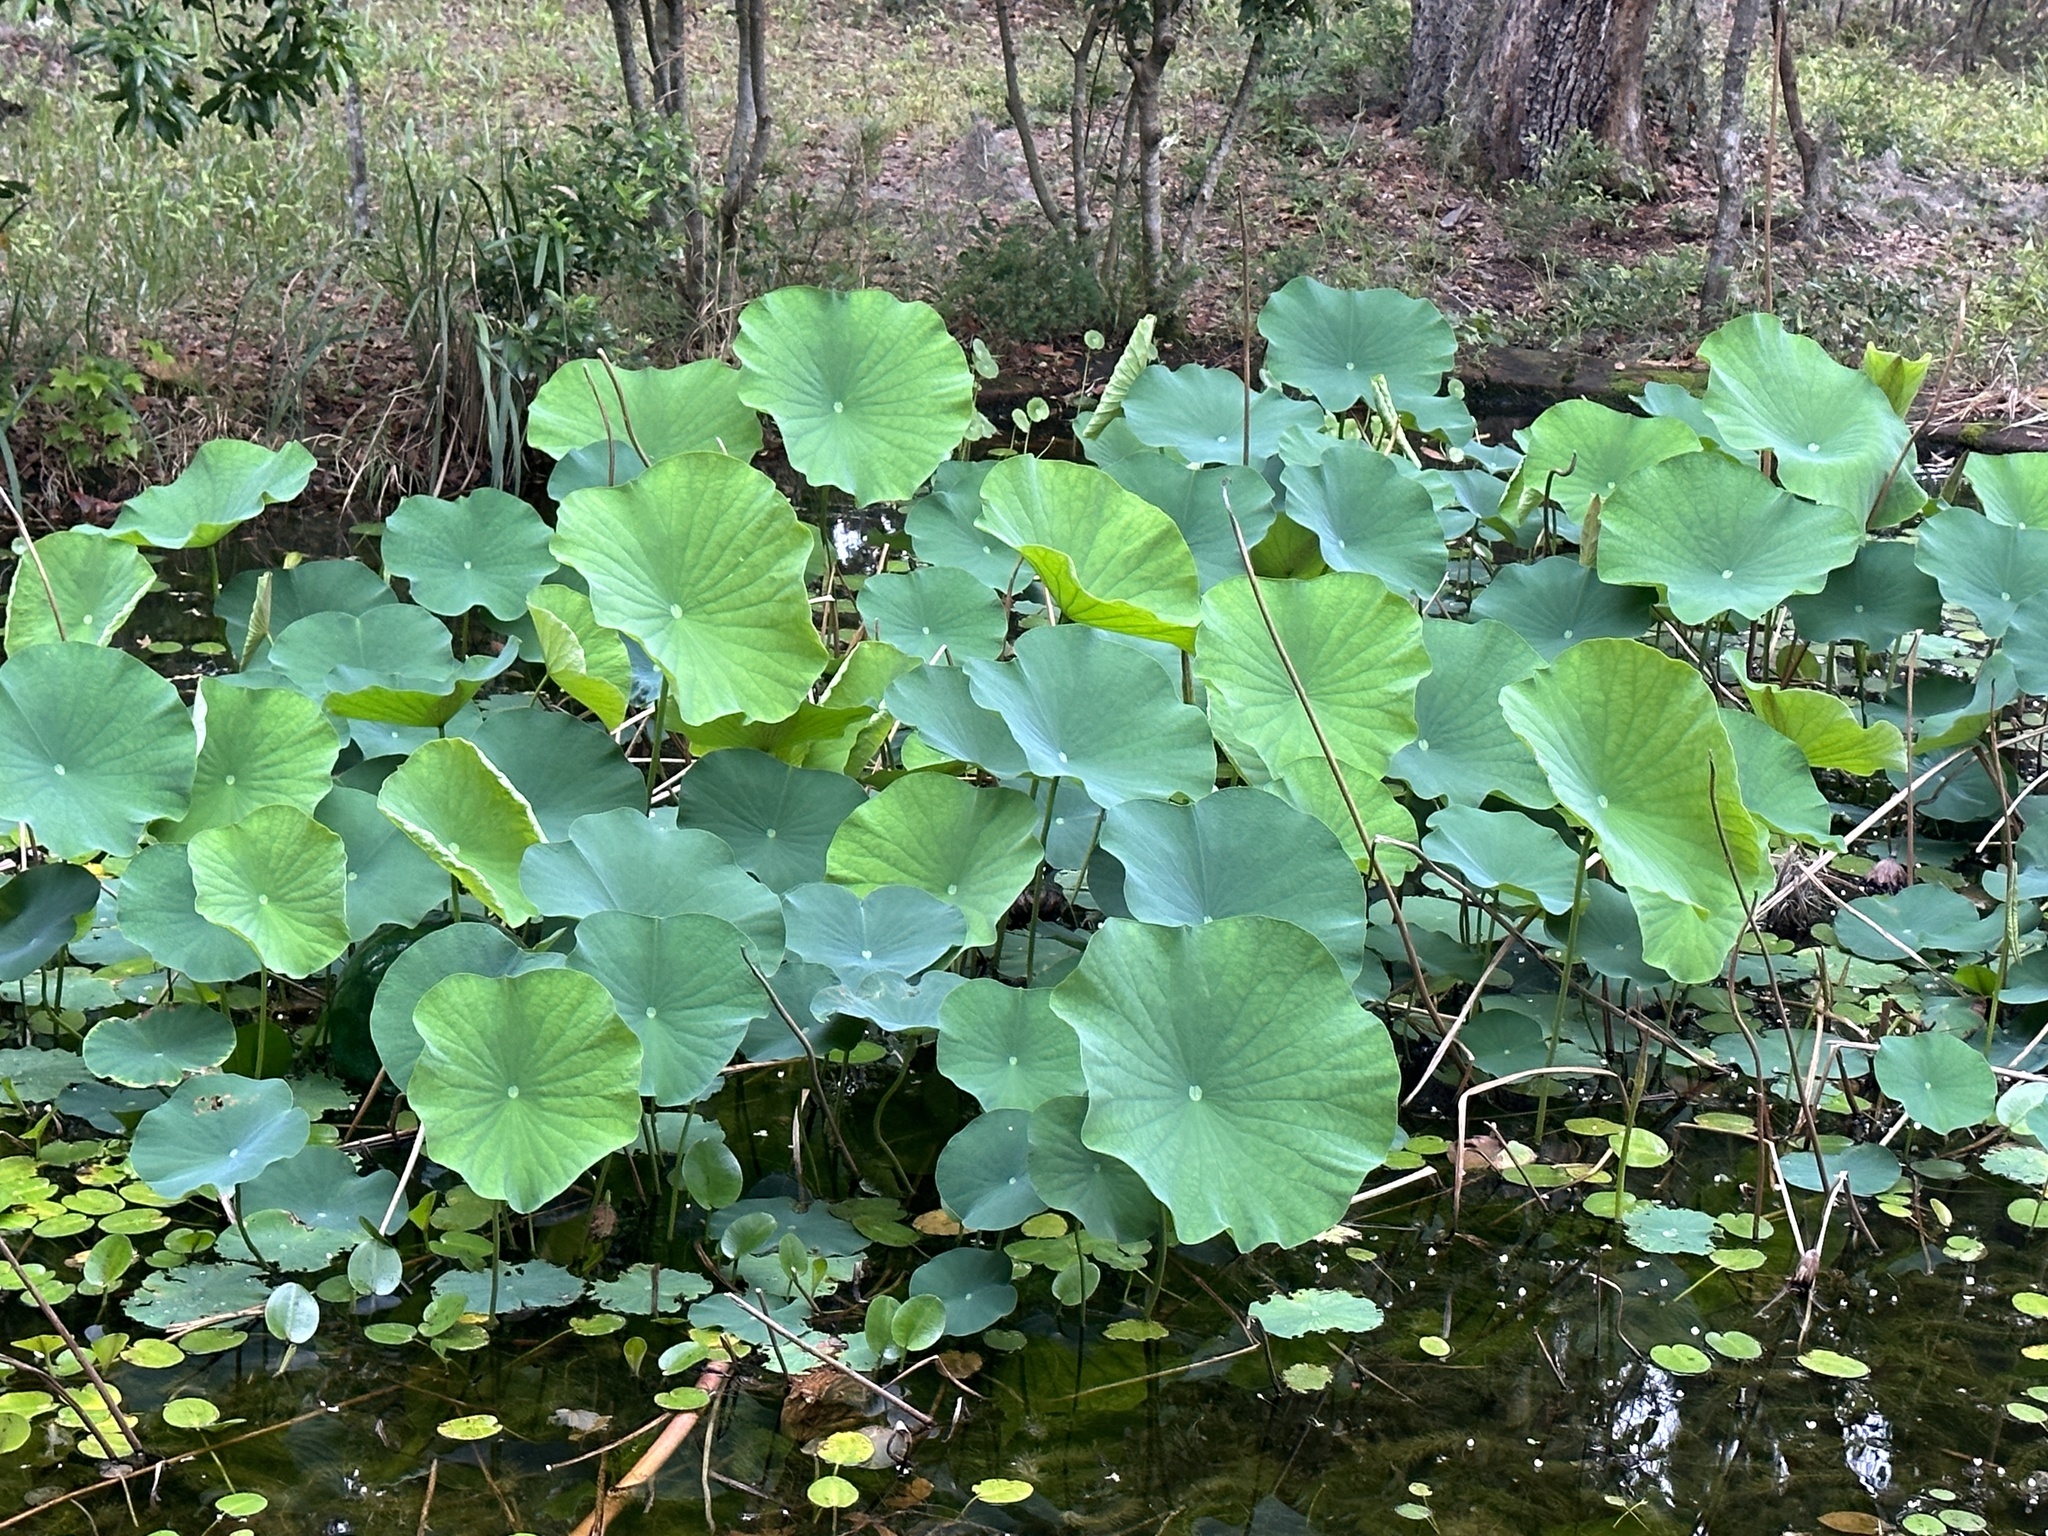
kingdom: Plantae
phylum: Tracheophyta
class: Magnoliopsida
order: Proteales
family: Nelumbonaceae
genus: Nelumbo
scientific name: Nelumbo lutea
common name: American lotus
